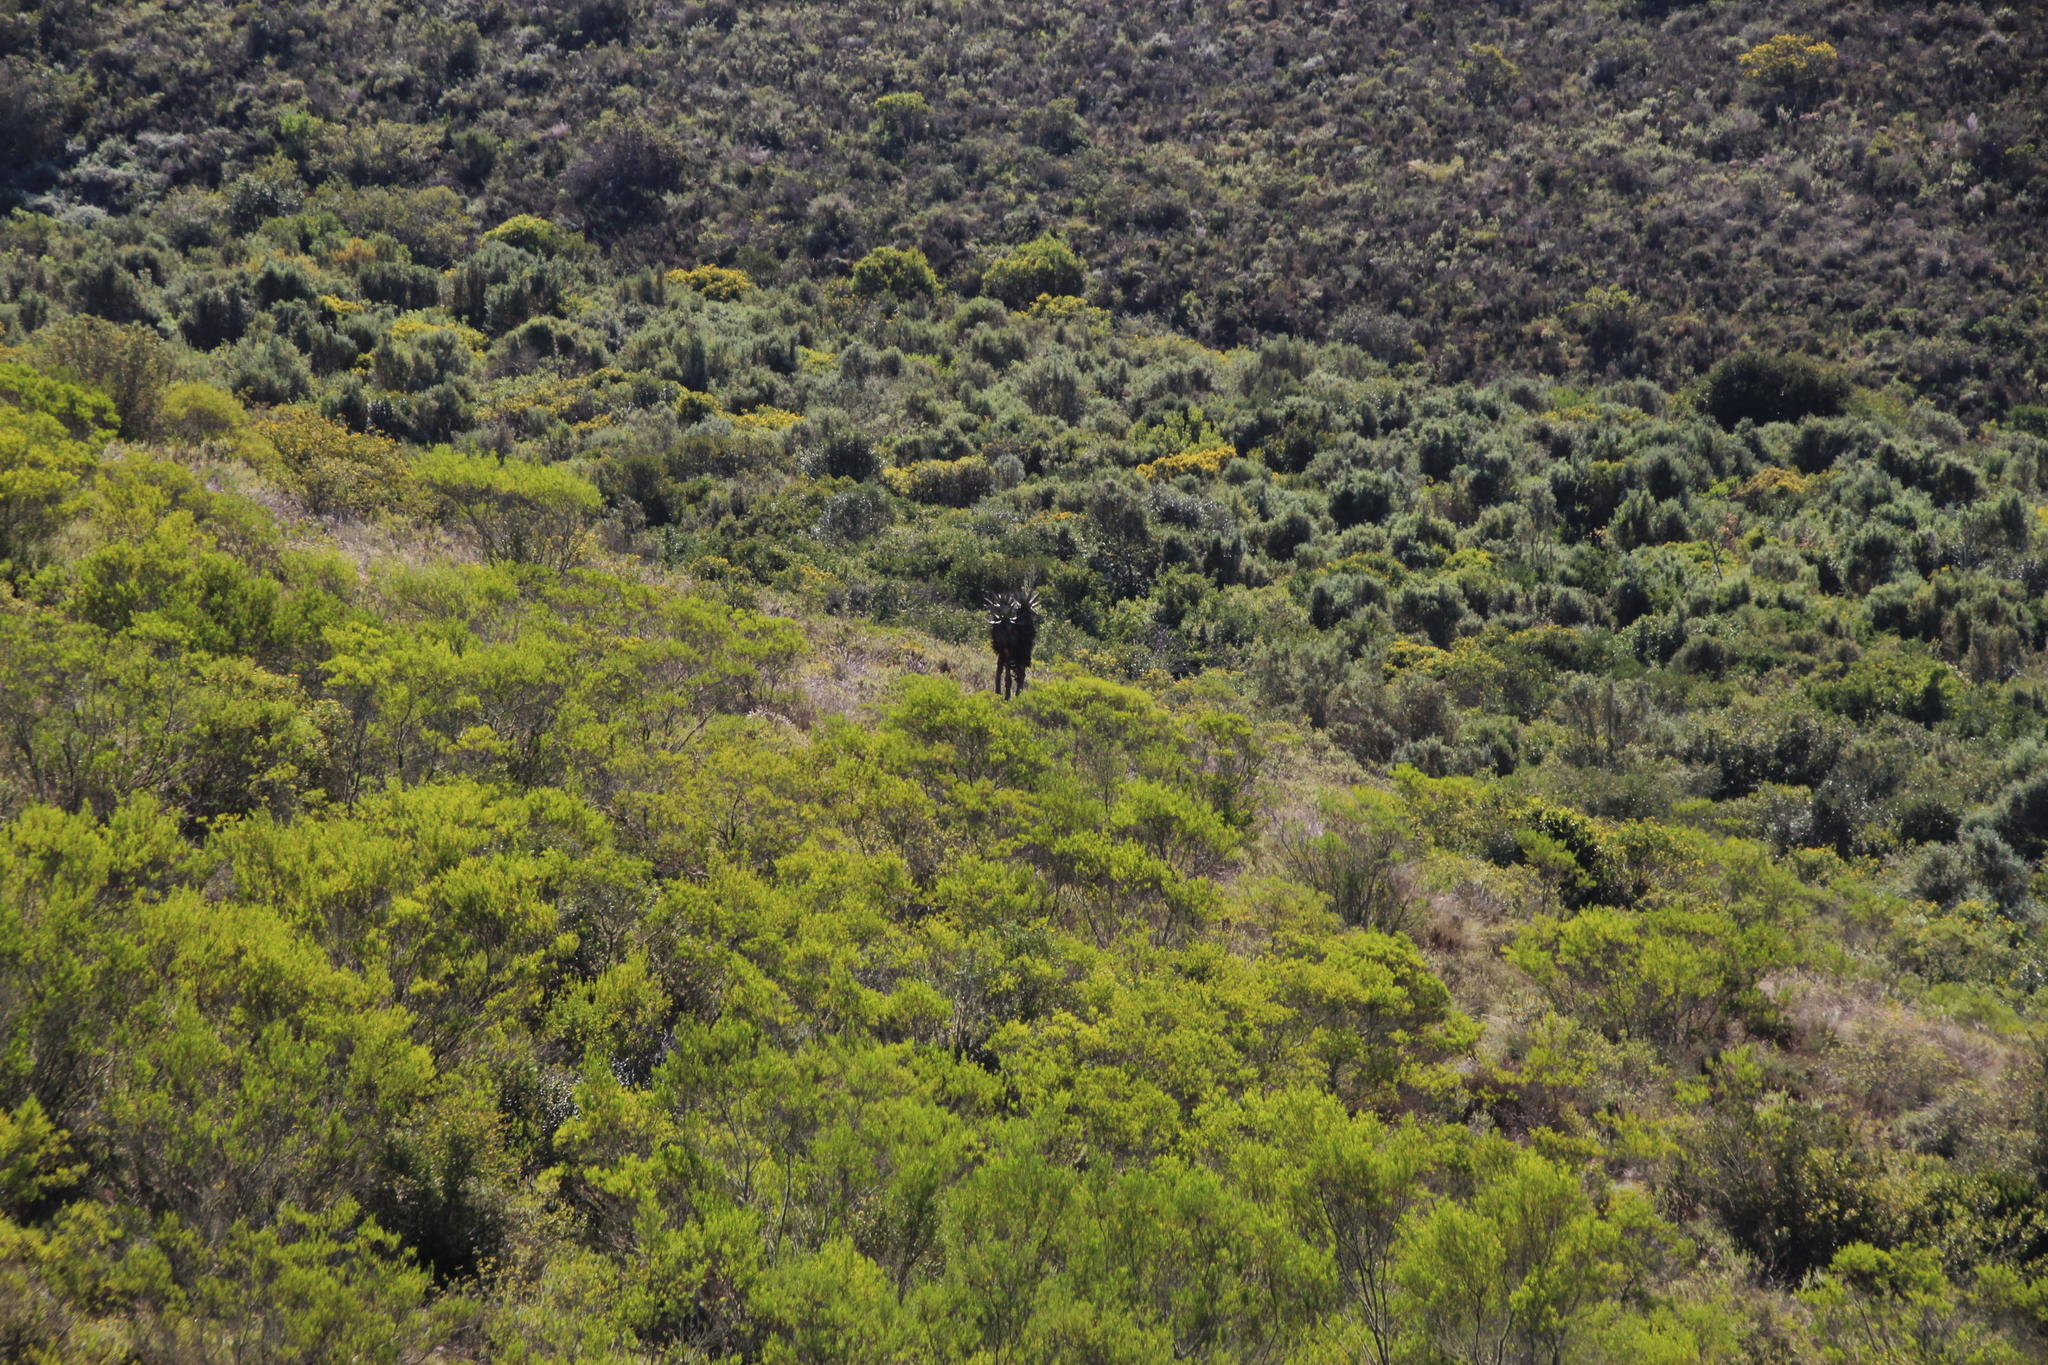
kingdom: Plantae
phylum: Tracheophyta
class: Liliopsida
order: Asparagales
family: Asphodelaceae
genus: Aloe
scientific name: Aloe ferox
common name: Bitter aloe
